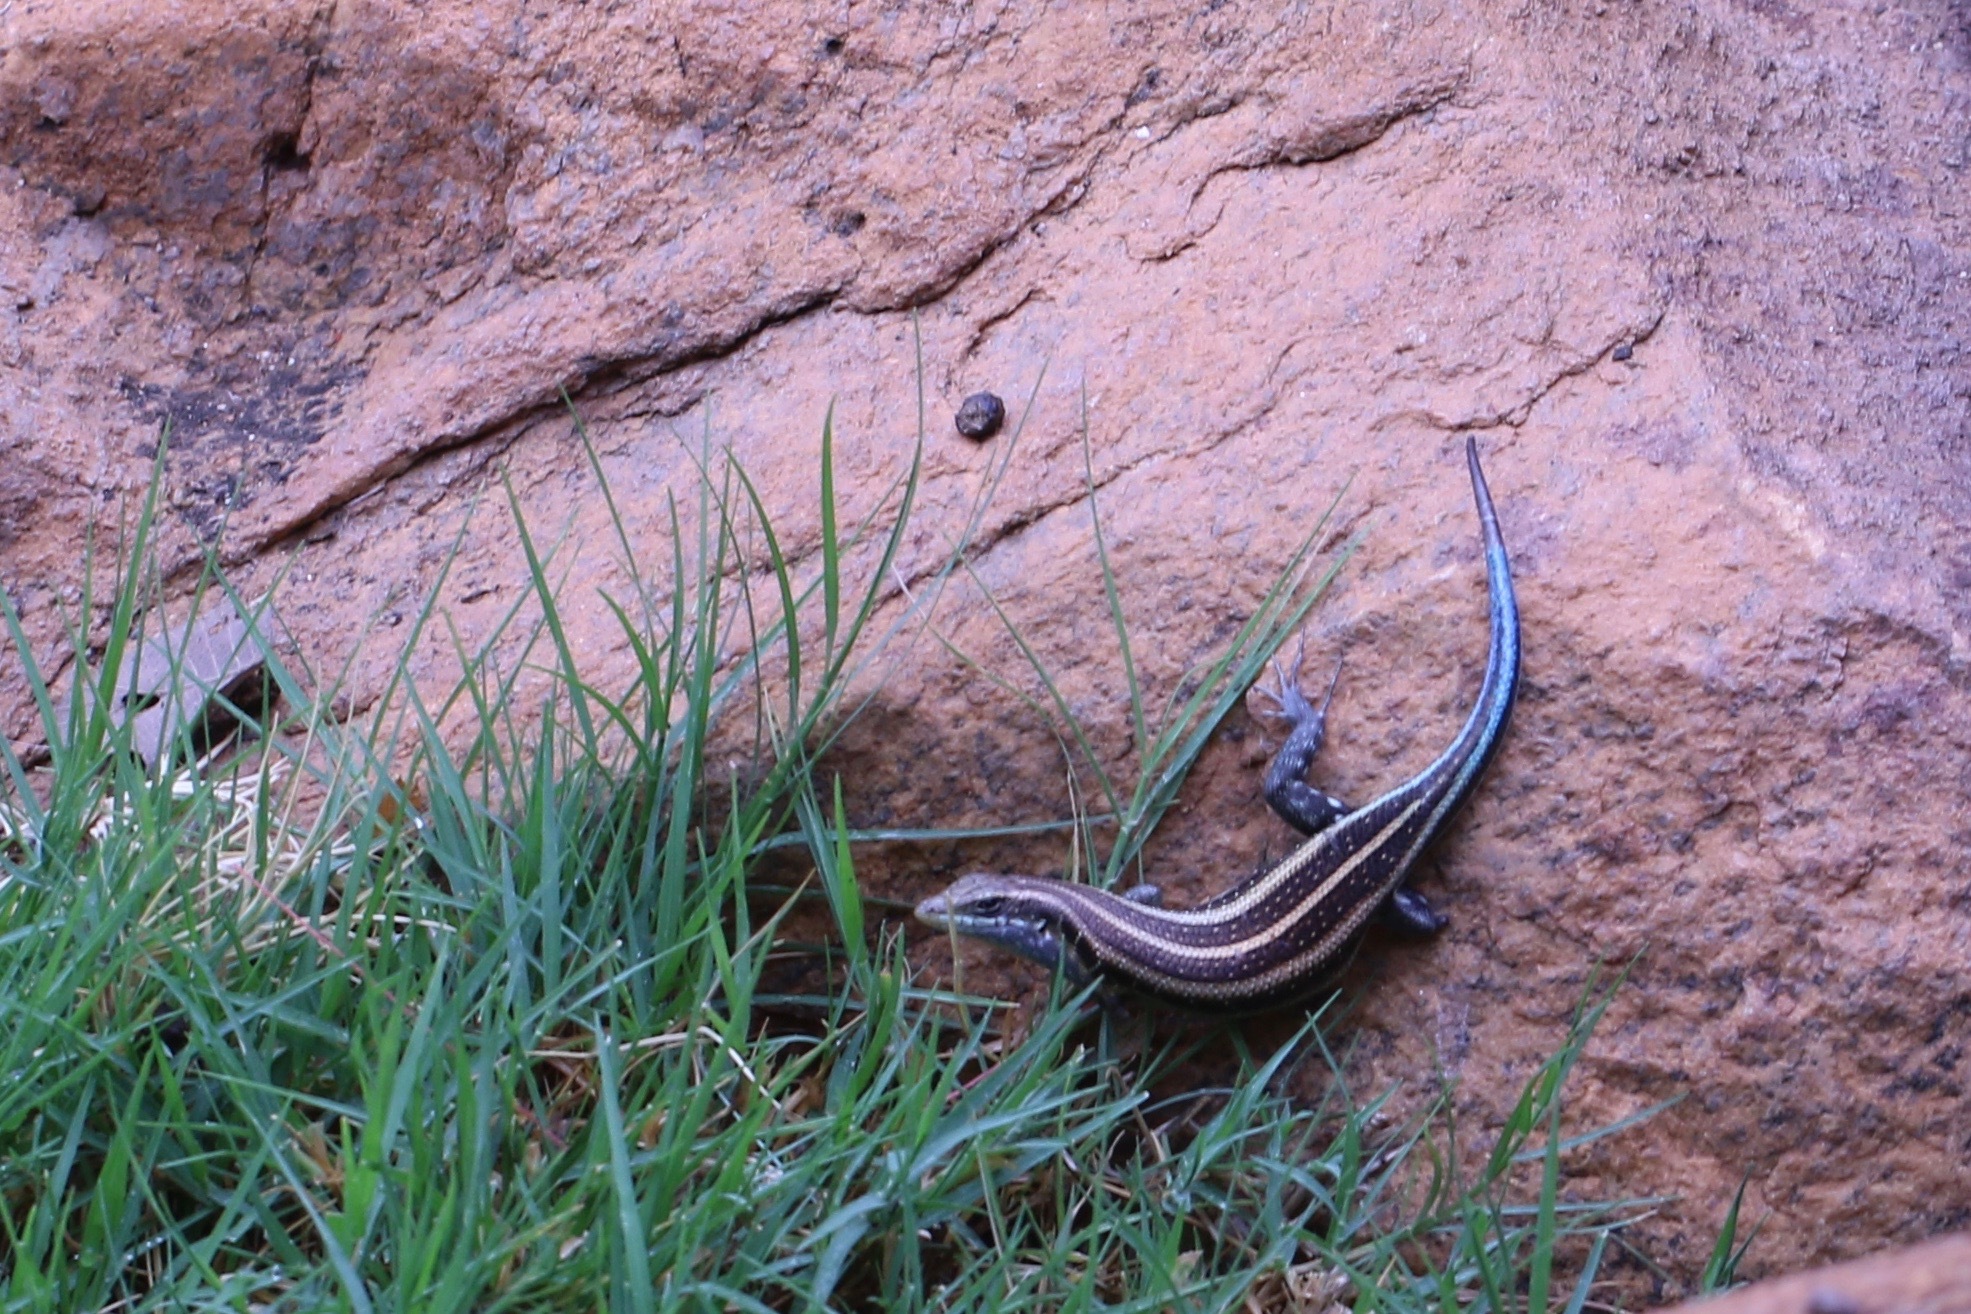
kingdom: Animalia
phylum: Chordata
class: Squamata
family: Scincidae
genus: Trachylepis
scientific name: Trachylepis quinquetaeniata
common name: African five-lined skink
